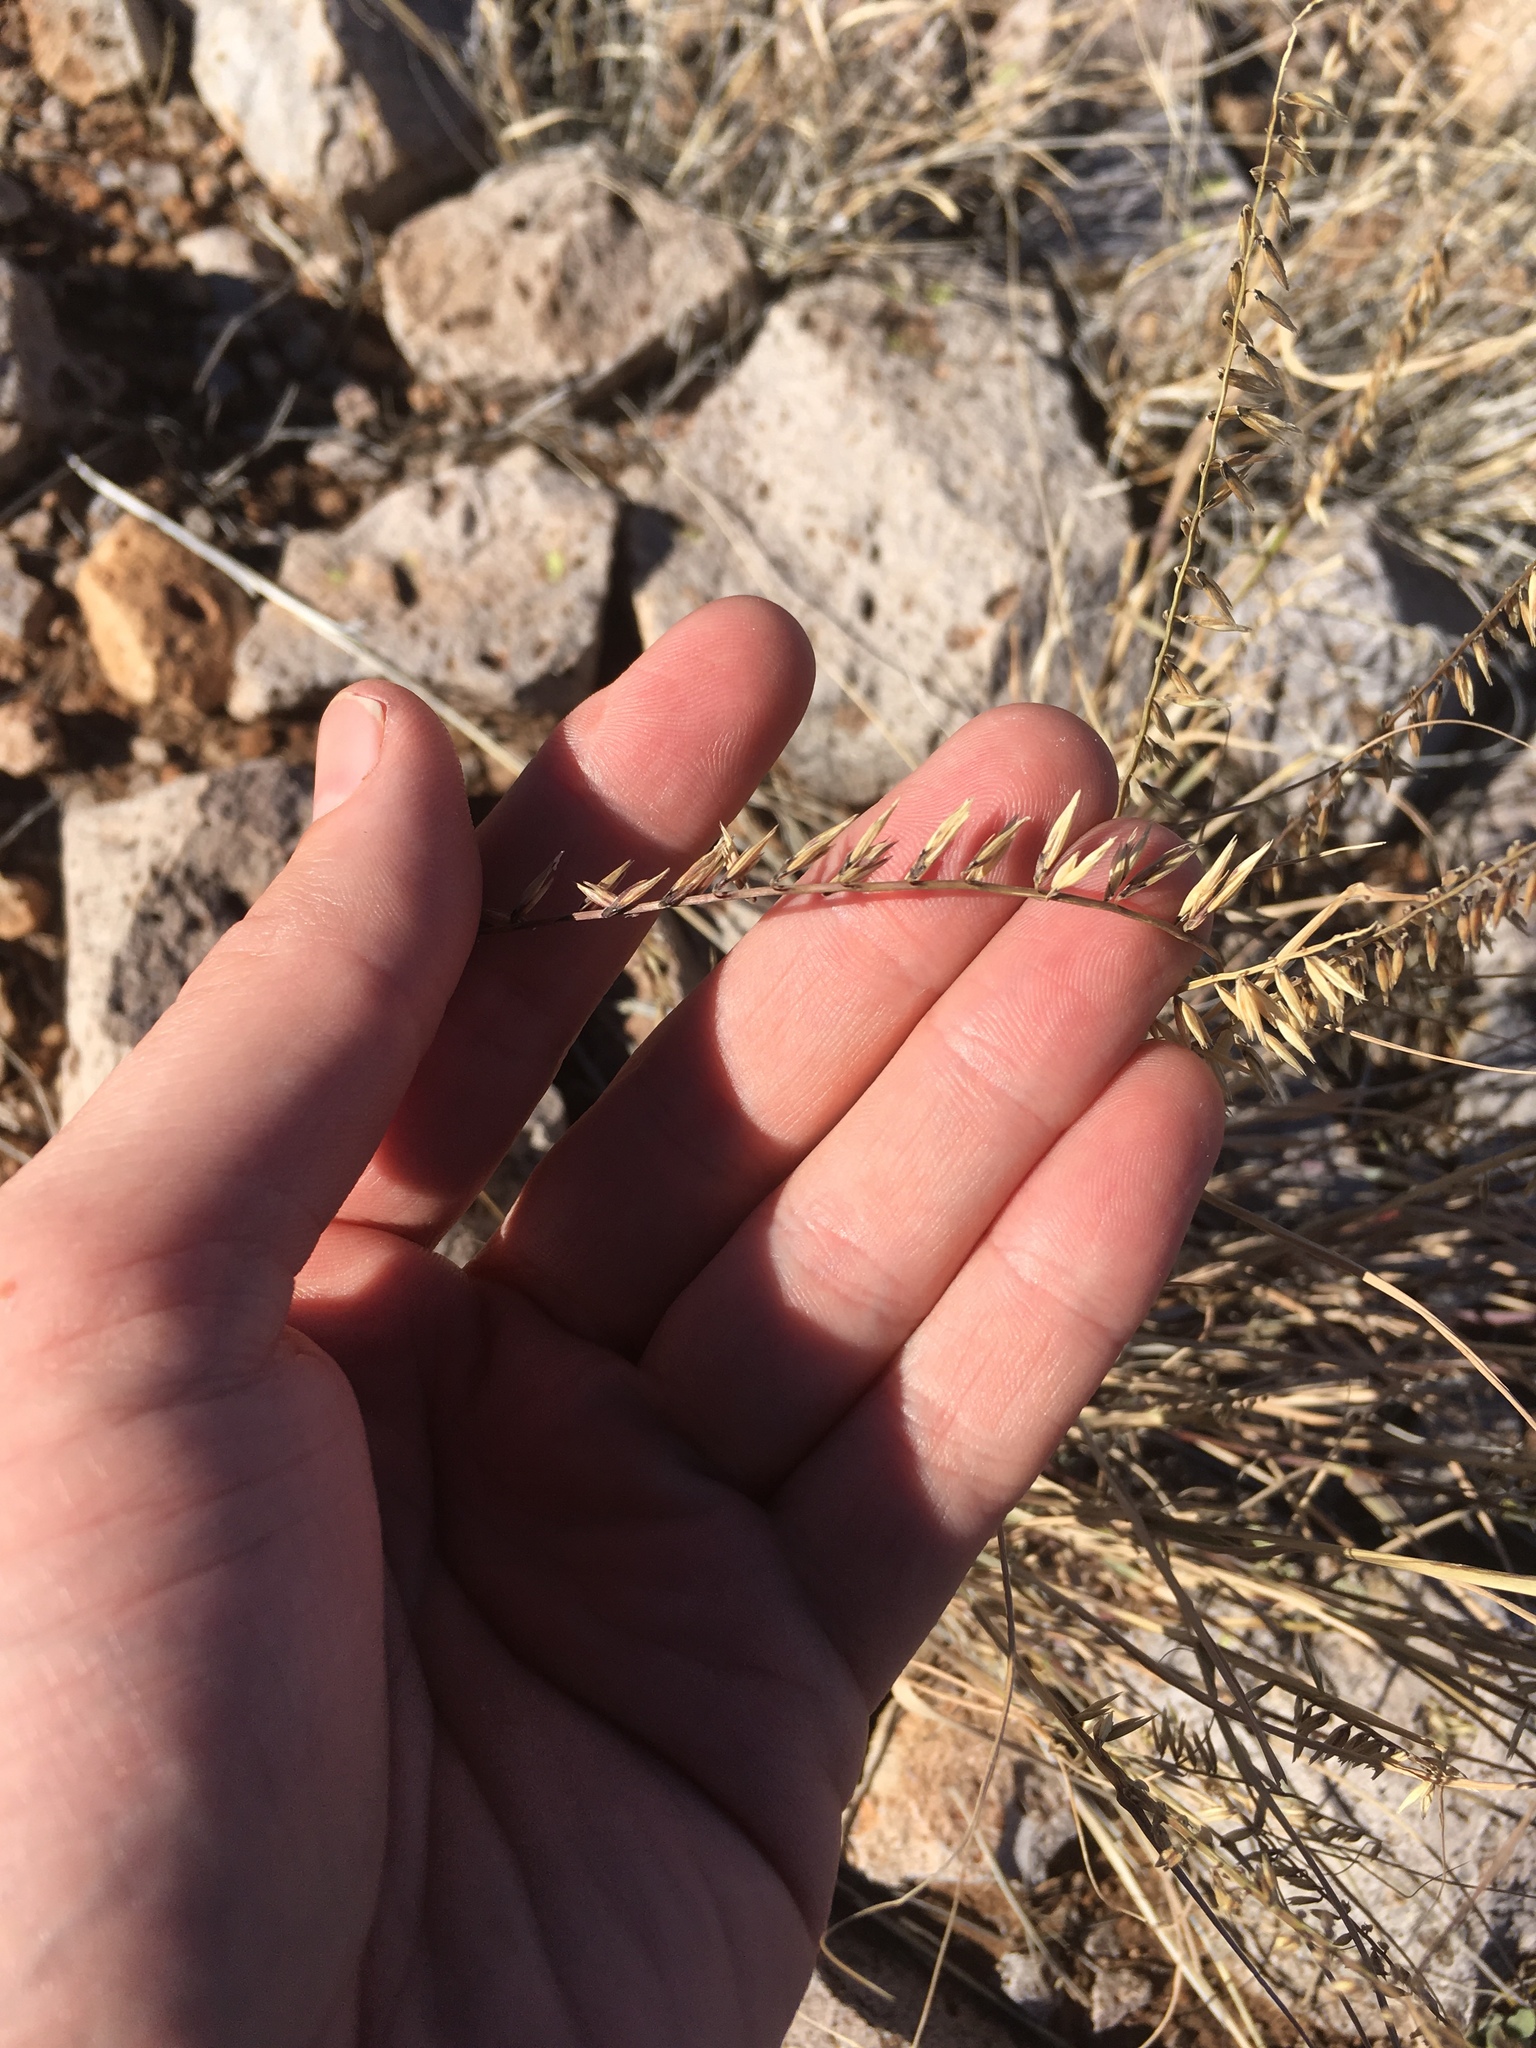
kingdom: Plantae
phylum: Tracheophyta
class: Liliopsida
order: Poales
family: Poaceae
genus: Bouteloua
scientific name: Bouteloua curtipendula
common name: Side-oats grama
